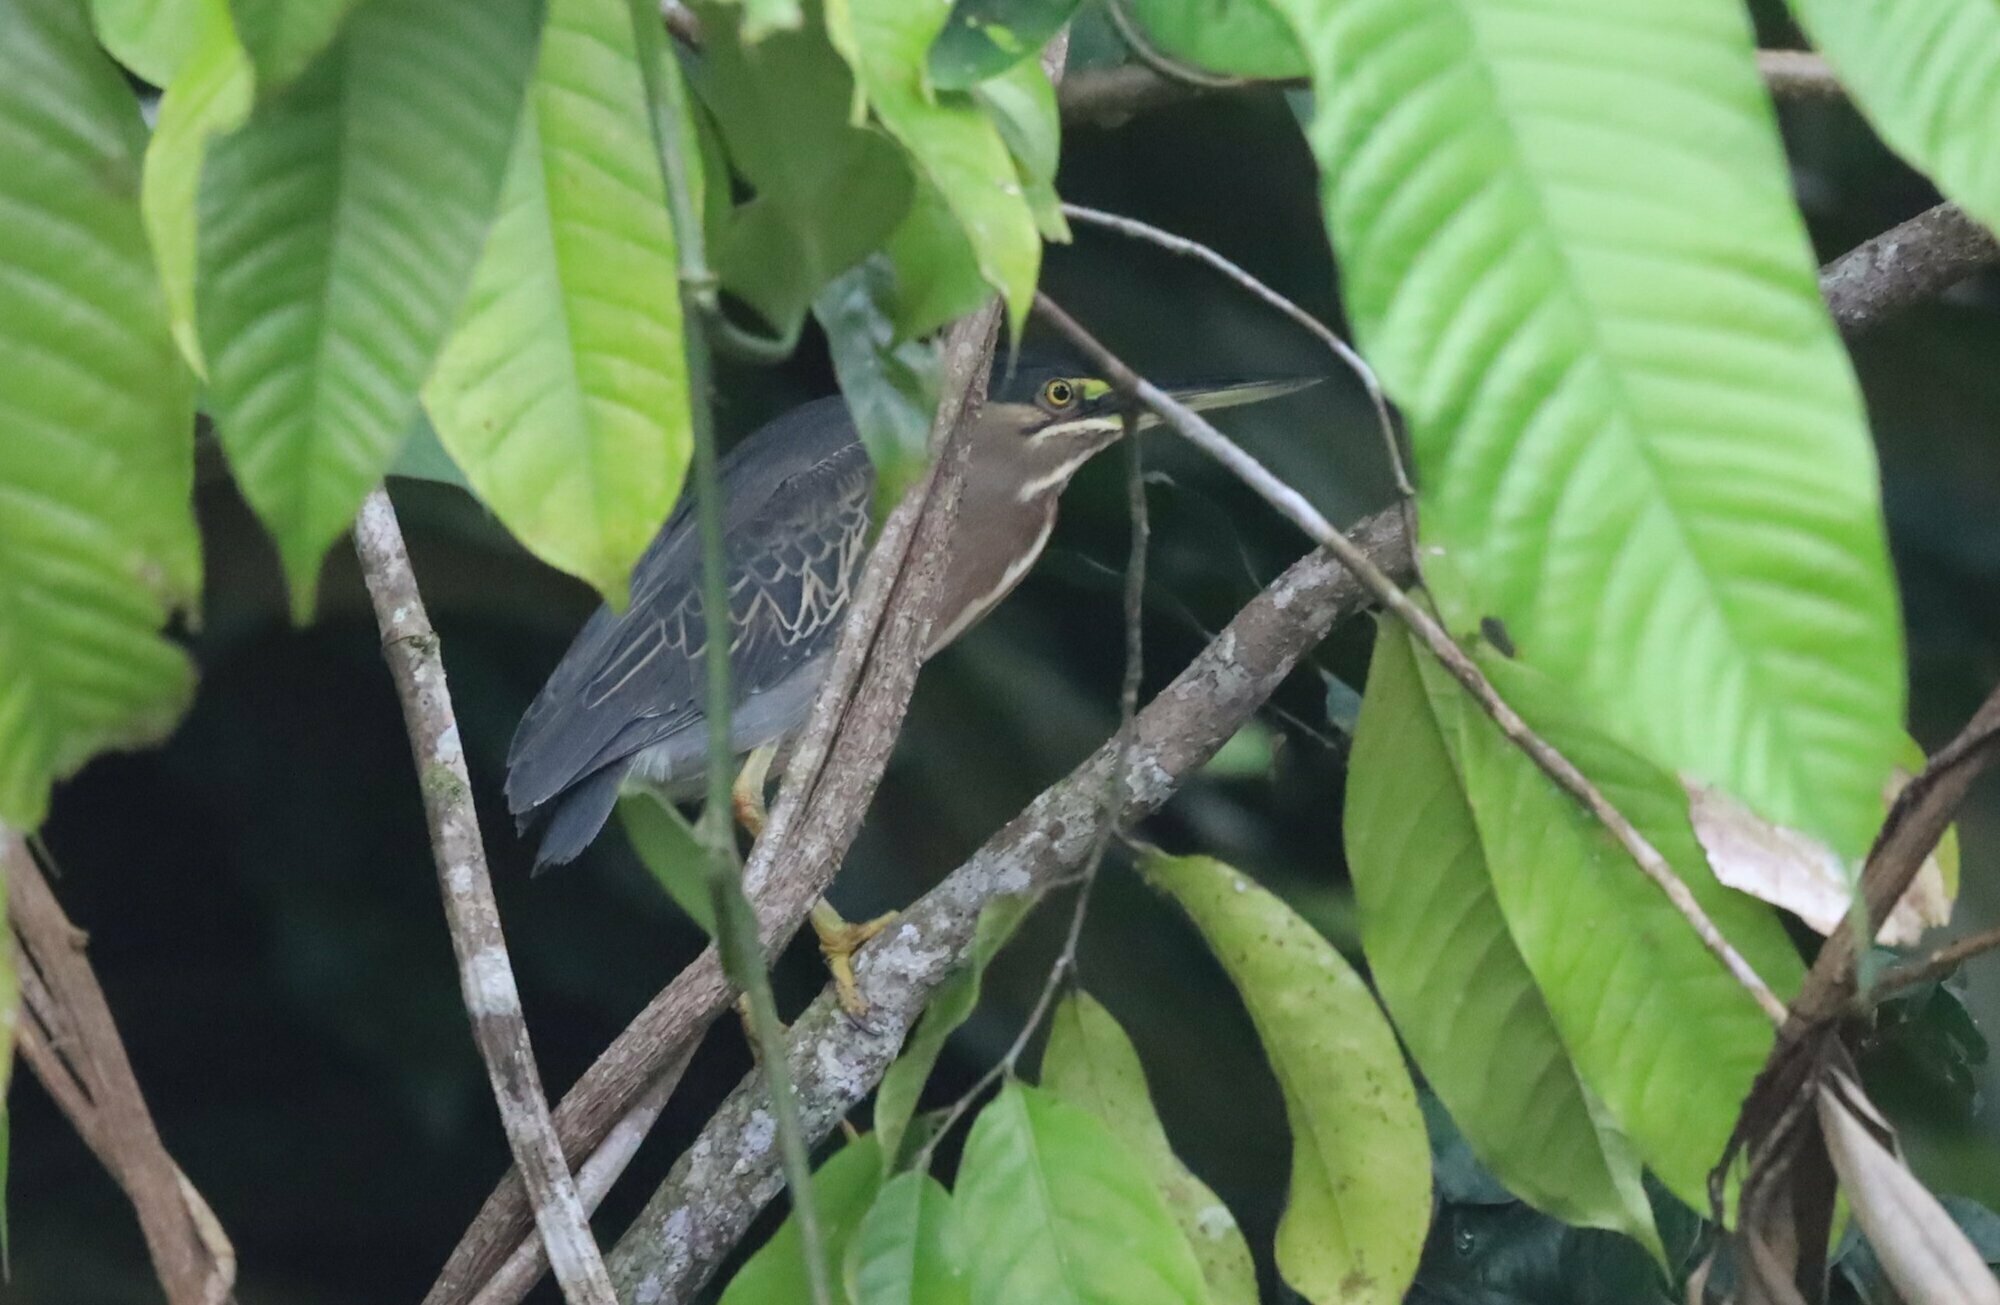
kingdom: Animalia
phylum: Chordata
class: Aves
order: Pelecaniformes
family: Ardeidae
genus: Butorides
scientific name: Butorides striata
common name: Striated heron
